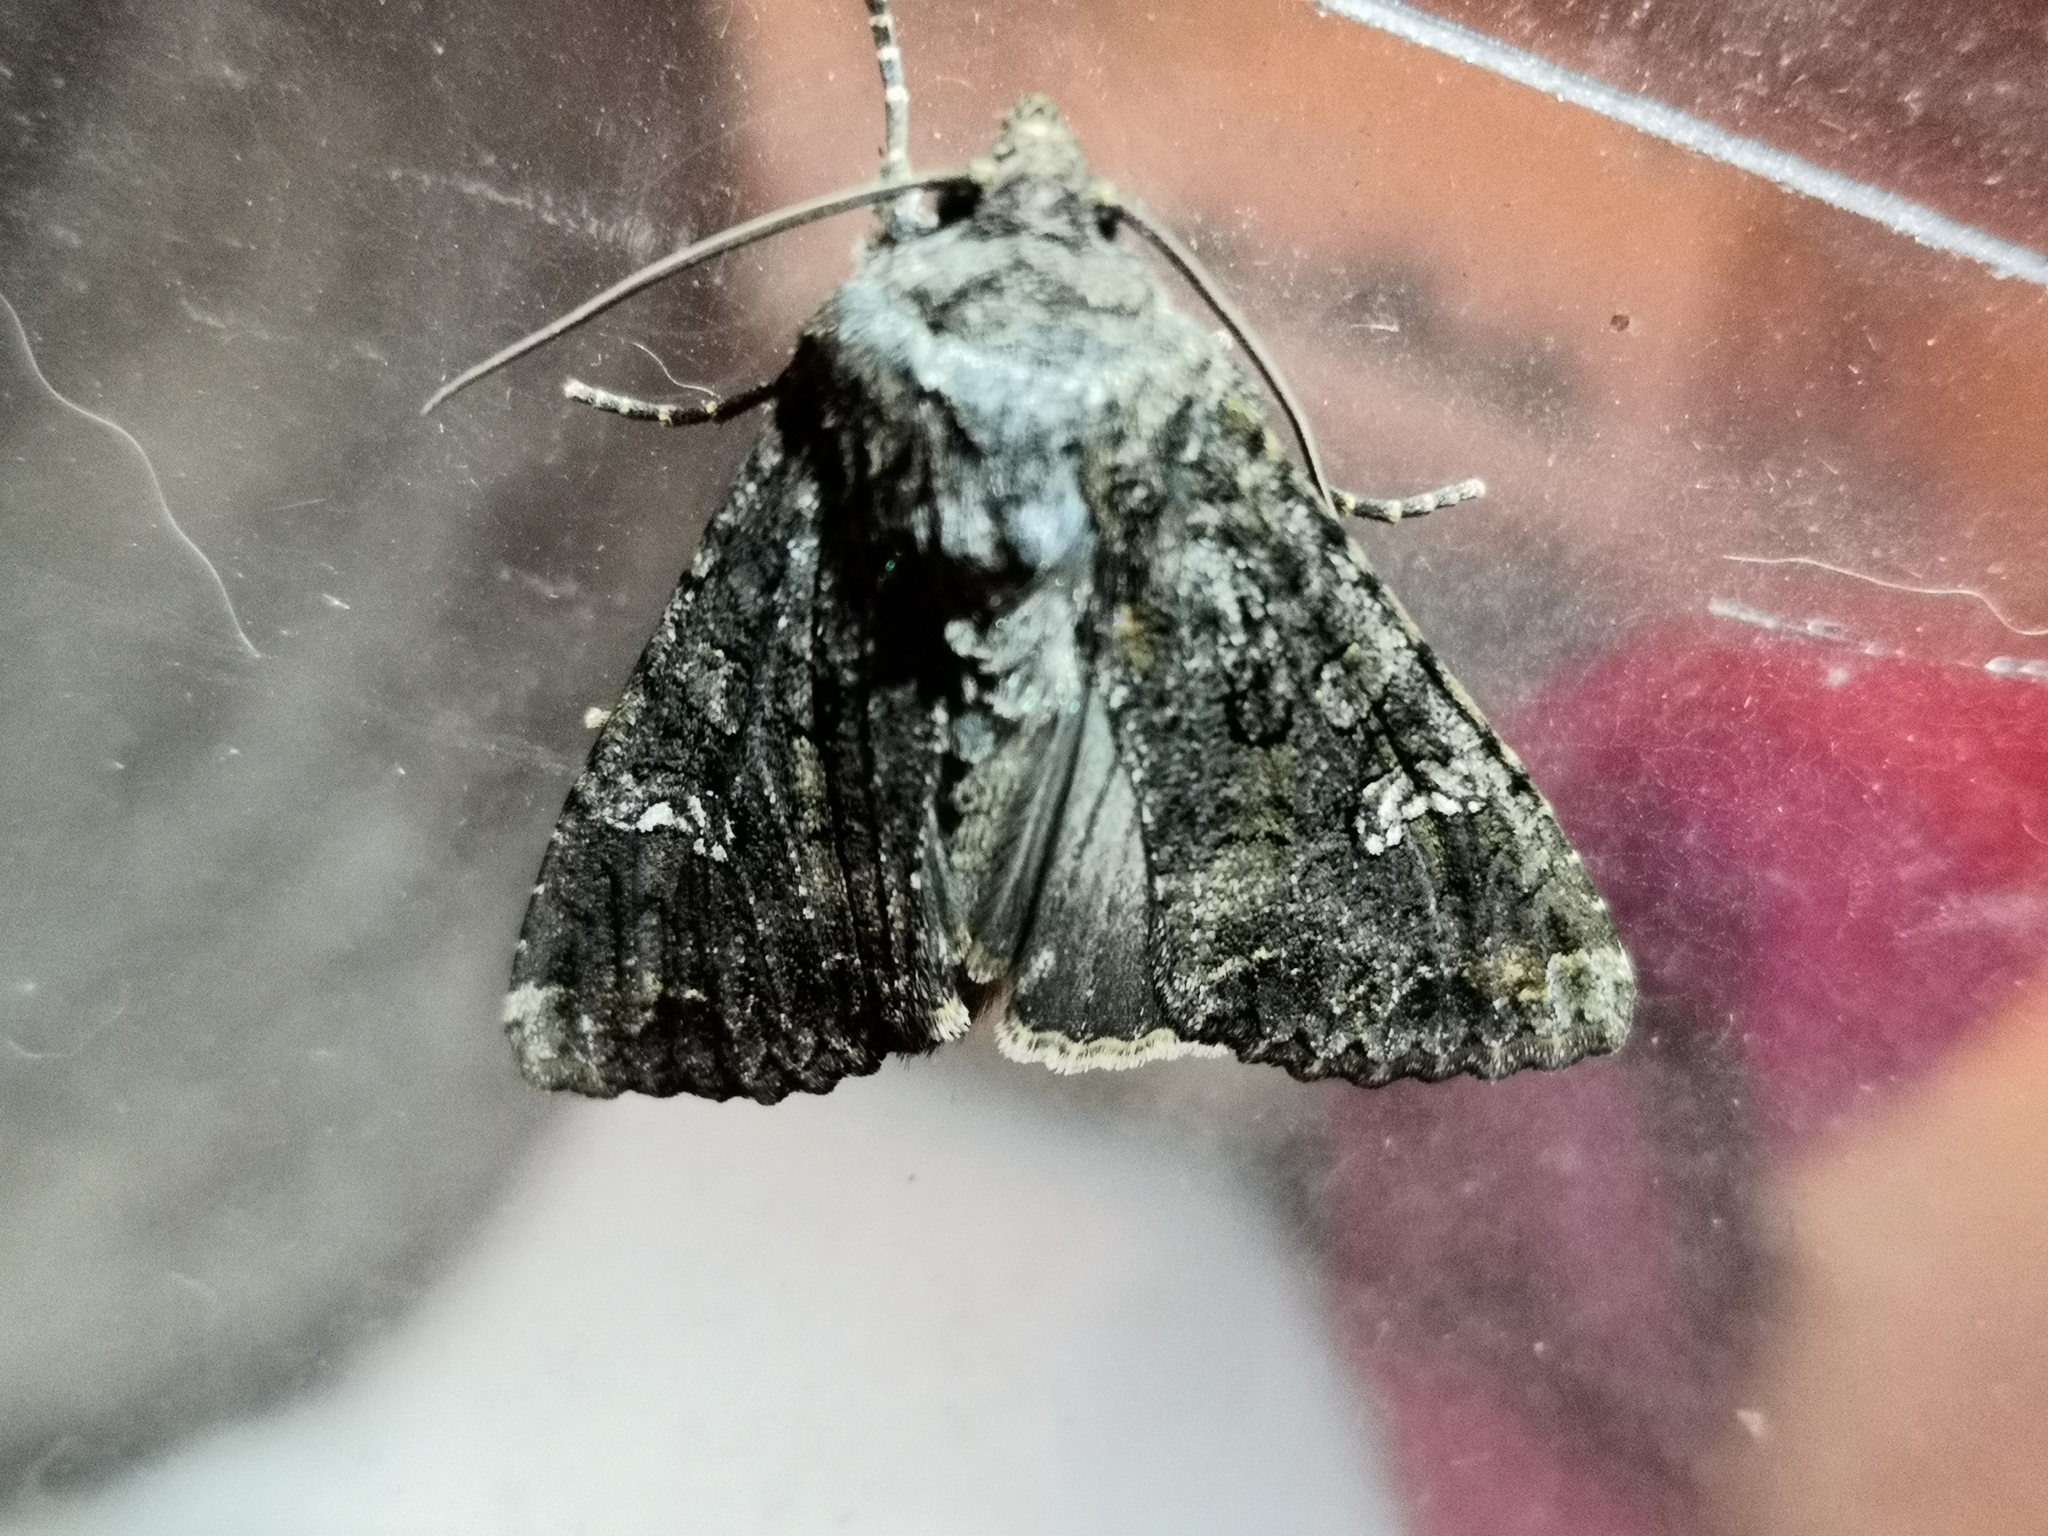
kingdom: Animalia
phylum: Arthropoda
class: Insecta
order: Lepidoptera
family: Noctuidae
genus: Mamestra
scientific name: Mamestra brassicae
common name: Cabbage moth
